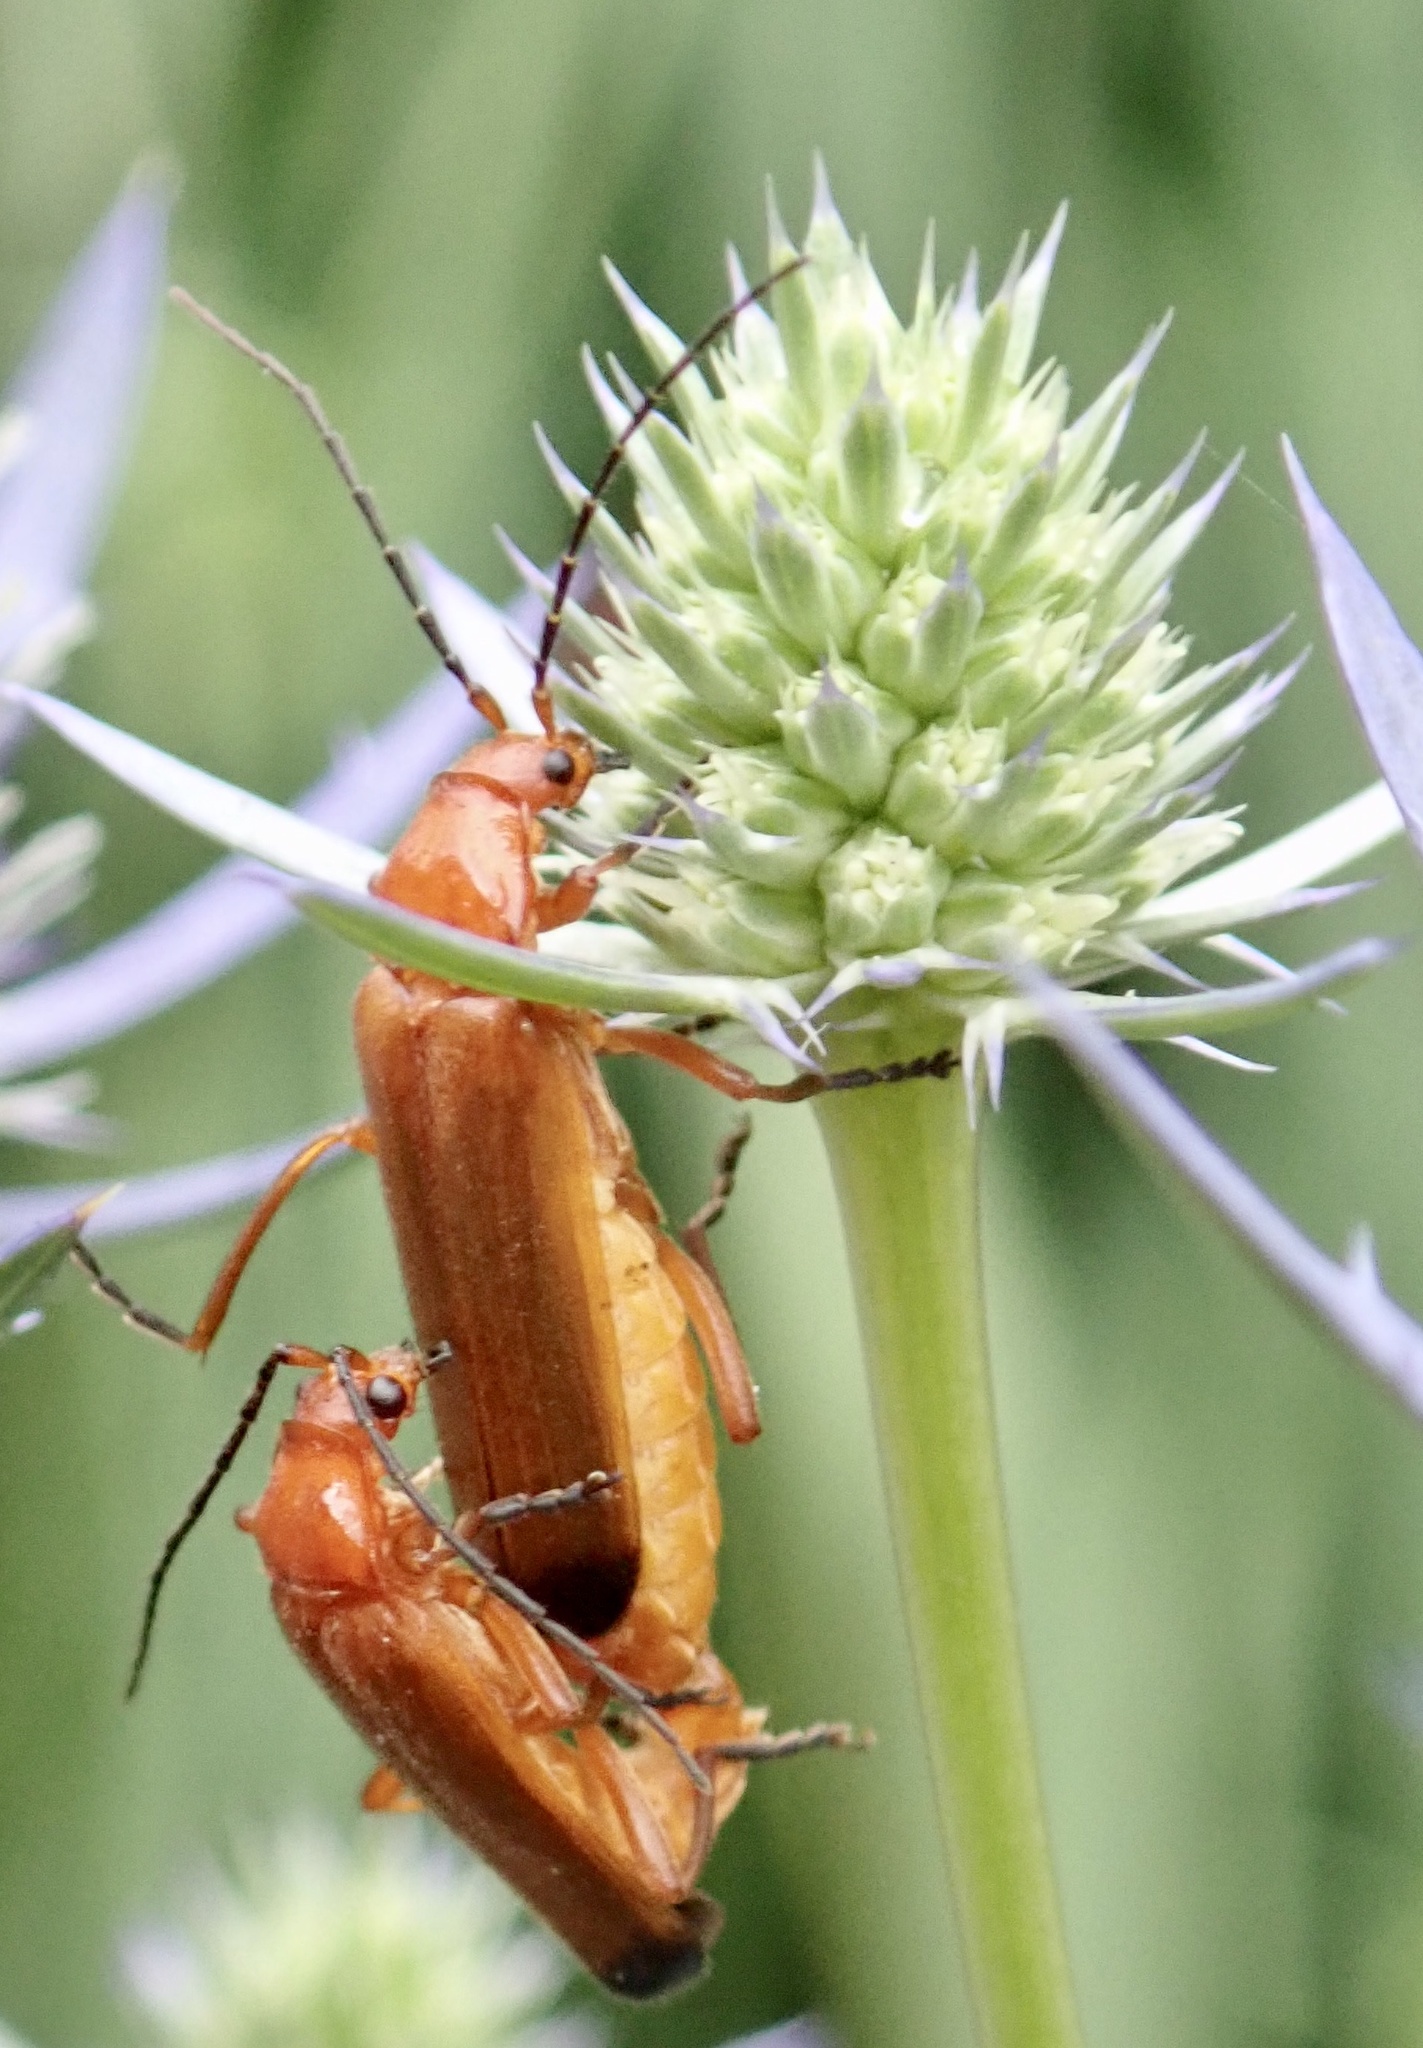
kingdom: Animalia
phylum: Arthropoda
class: Insecta
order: Coleoptera
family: Cantharidae
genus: Rhagonycha
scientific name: Rhagonycha fulva
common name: Common red soldier beetle
